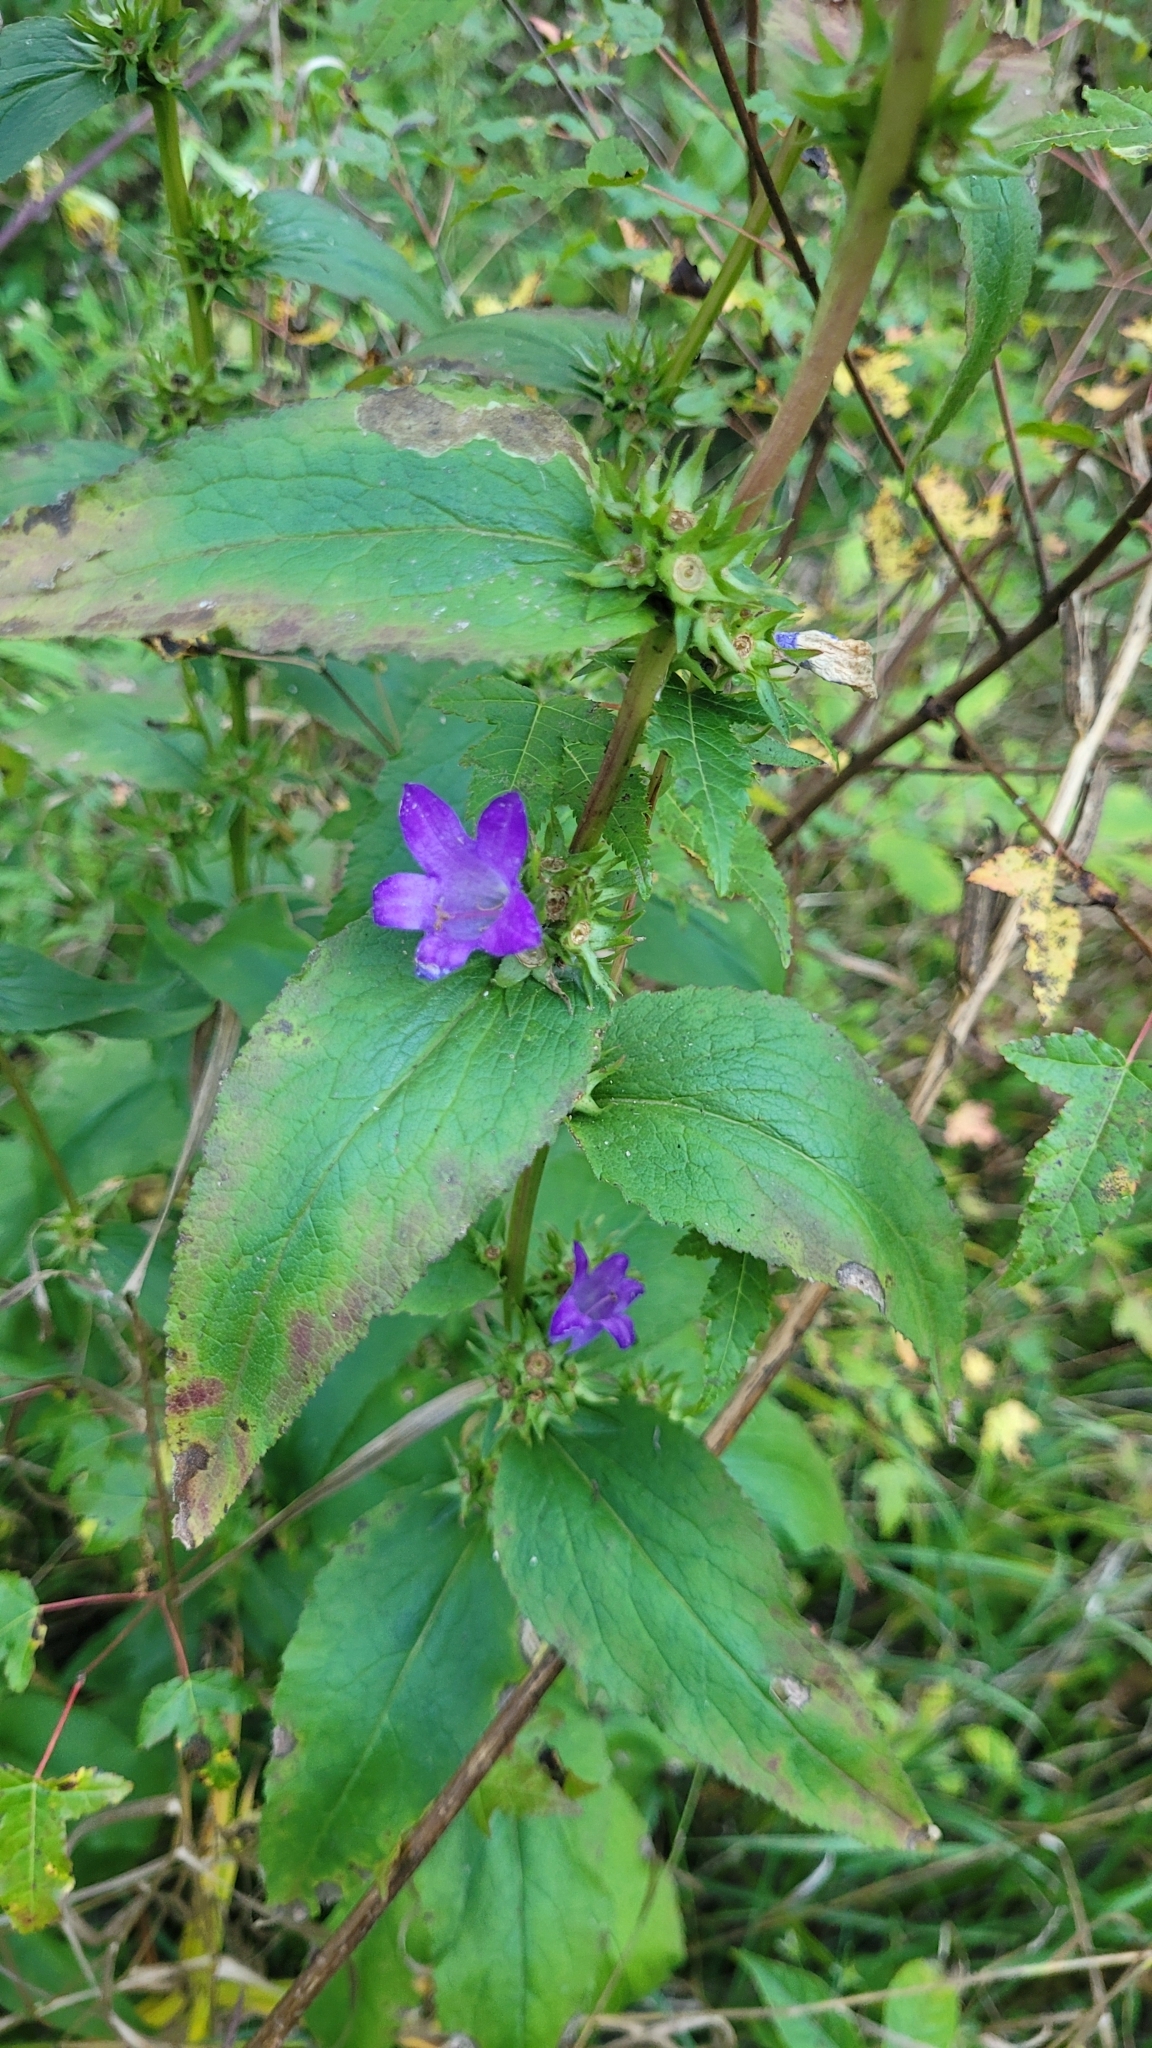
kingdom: Plantae
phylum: Tracheophyta
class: Magnoliopsida
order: Asterales
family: Campanulaceae
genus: Campanula
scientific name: Campanula glomerata
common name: Clustered bellflower
